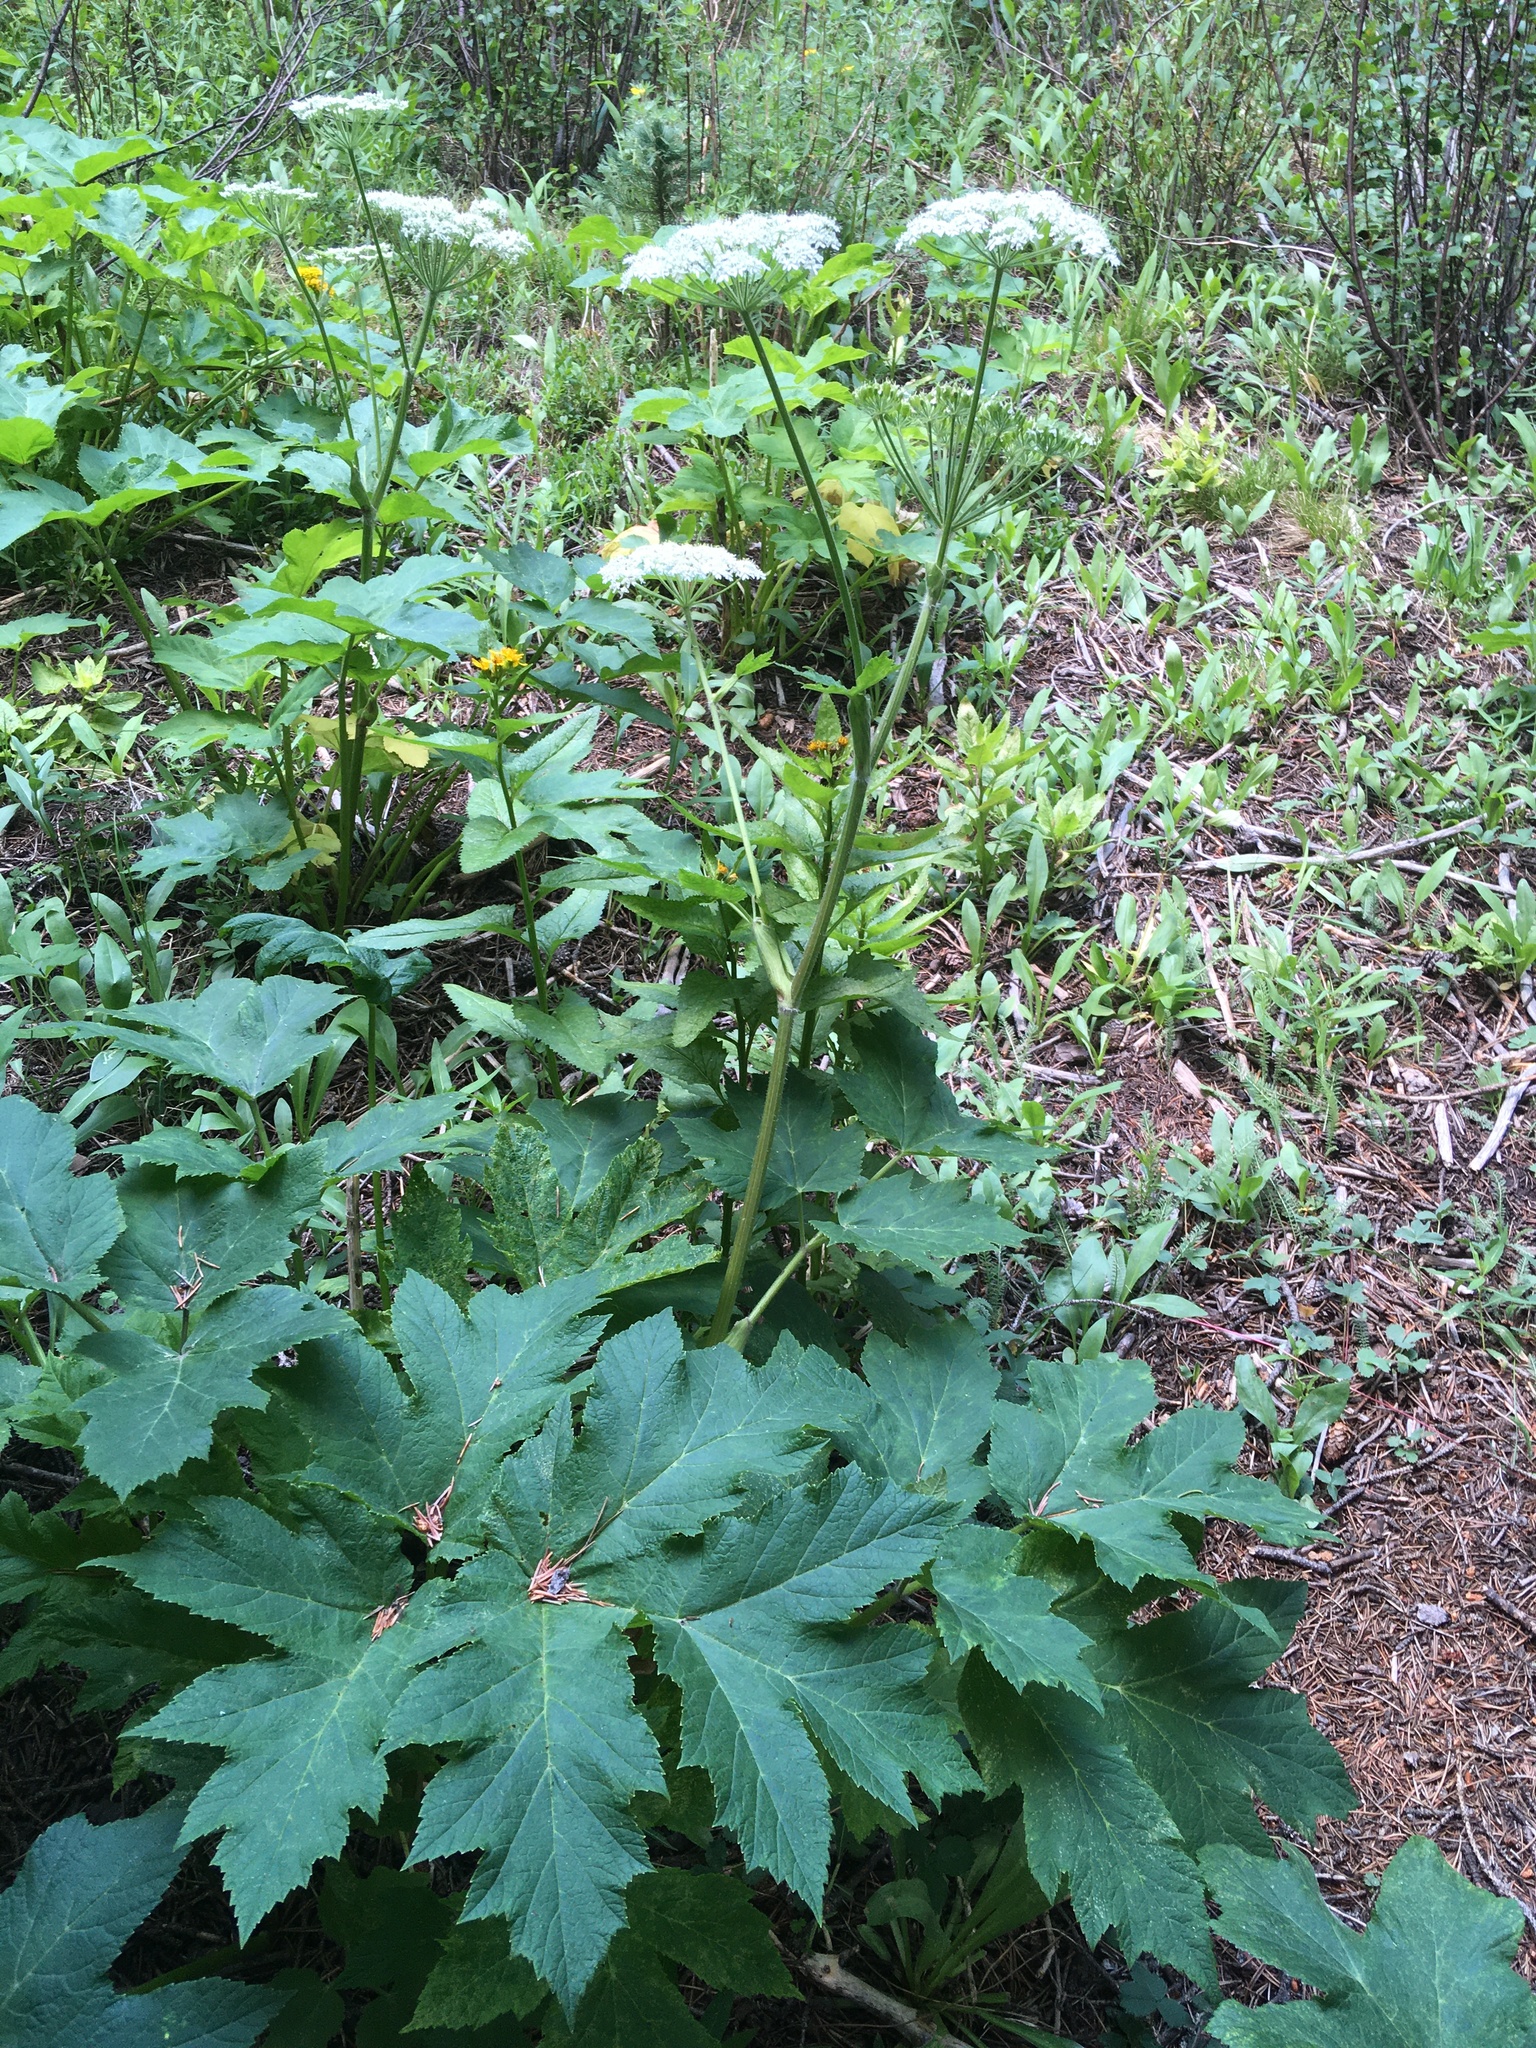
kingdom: Plantae
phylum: Tracheophyta
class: Magnoliopsida
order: Apiales
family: Apiaceae
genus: Heracleum
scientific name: Heracleum maximum
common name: American cow parsnip
